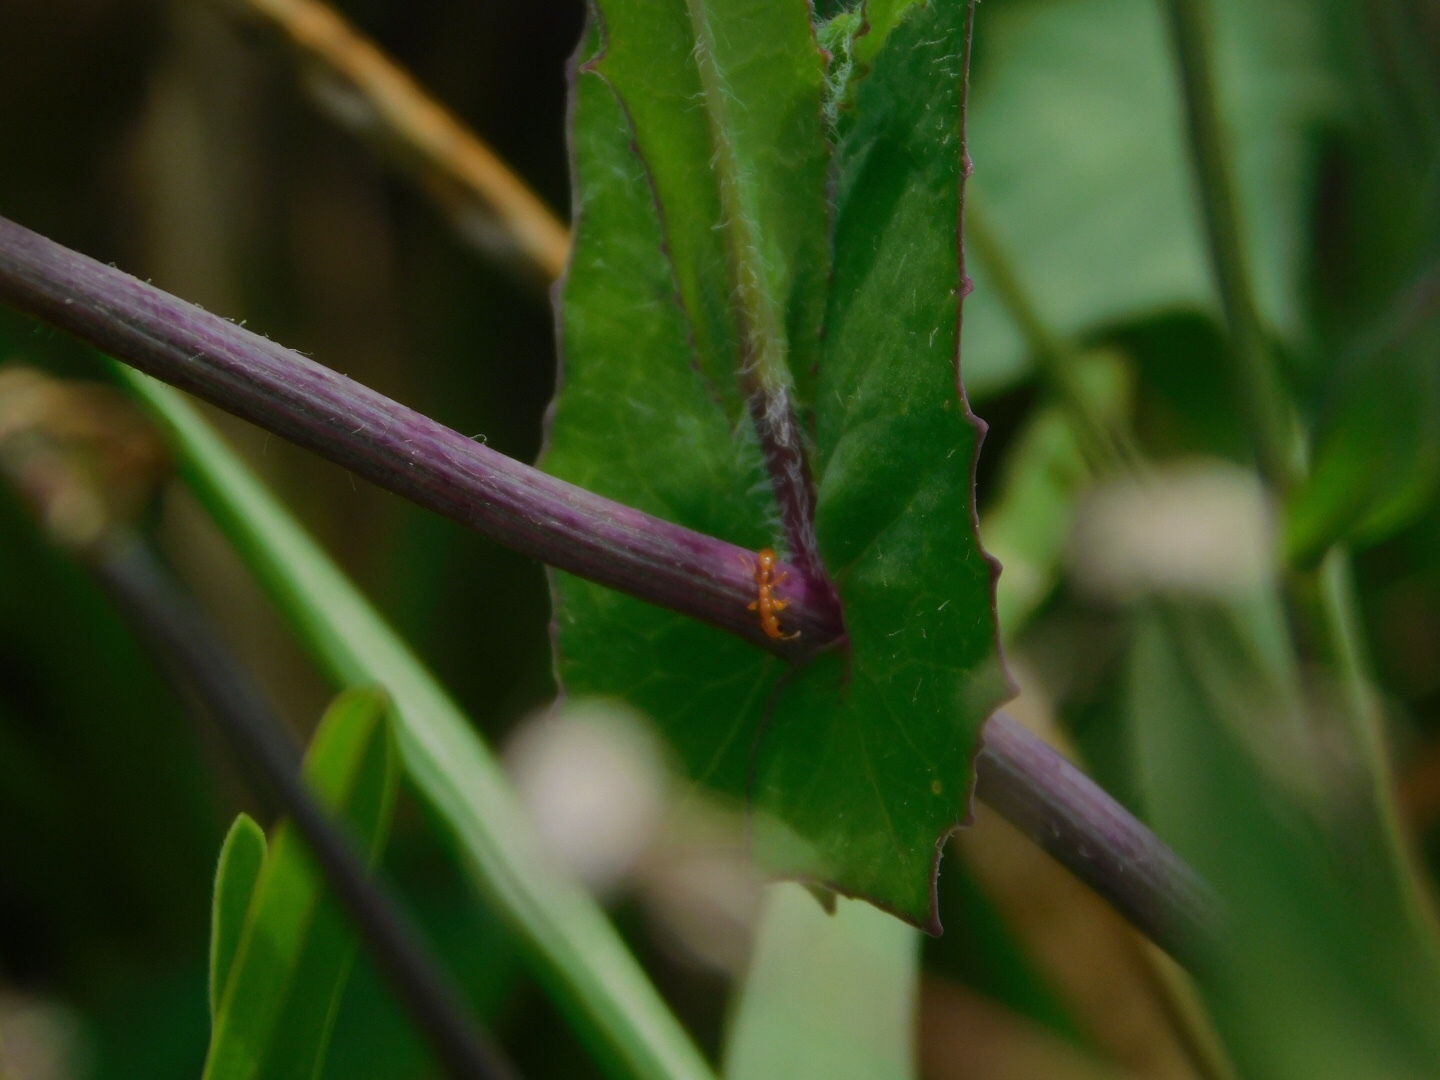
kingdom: Animalia
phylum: Arthropoda
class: Insecta
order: Hymenoptera
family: Formicidae
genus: Pseudomyrmex
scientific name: Pseudomyrmex pallidus
